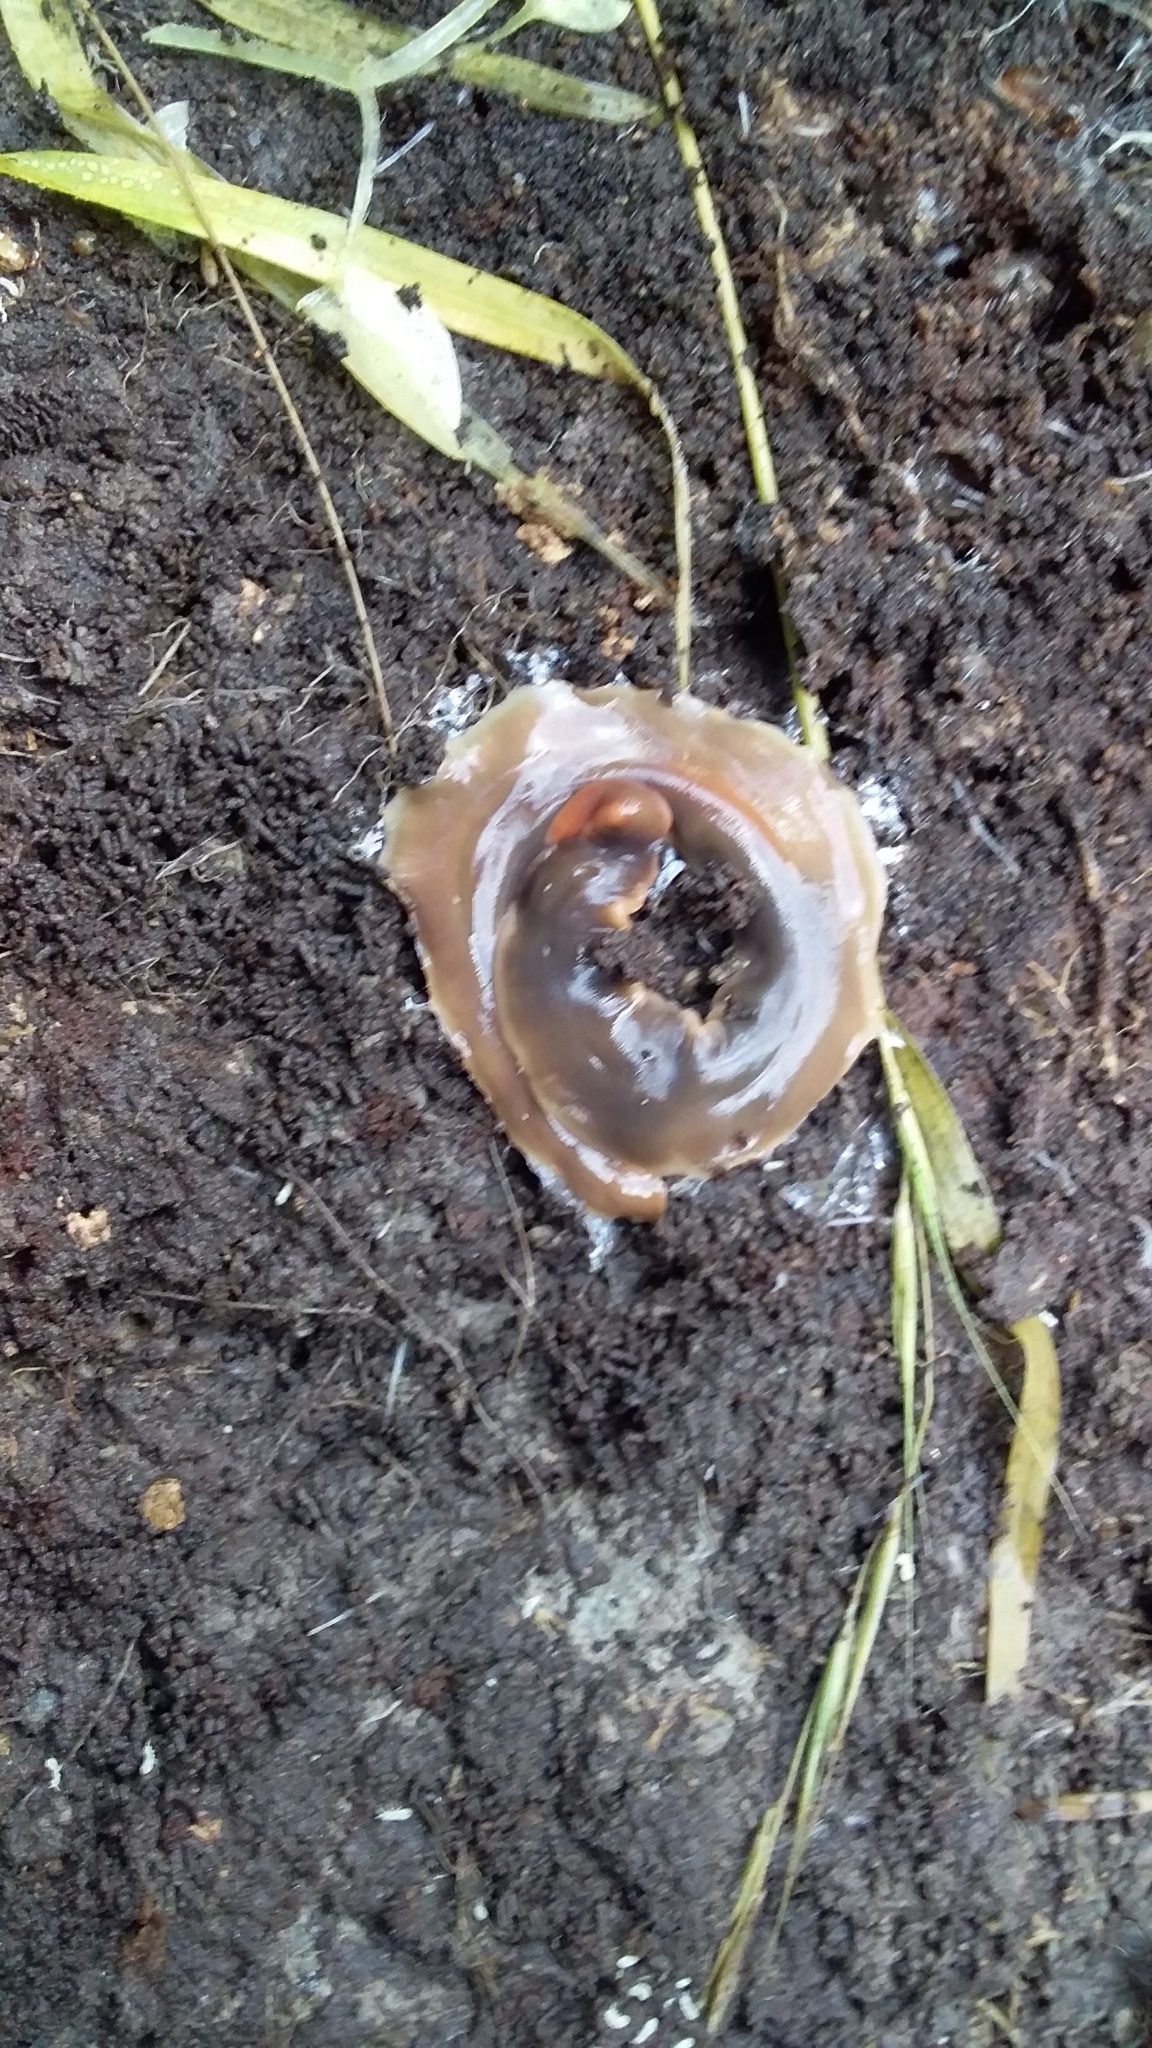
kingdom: Animalia
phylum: Platyhelminthes
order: Tricladida
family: Geoplanidae
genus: Arthurdendyus
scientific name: Arthurdendyus triangulatus
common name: New zealand flatworm
